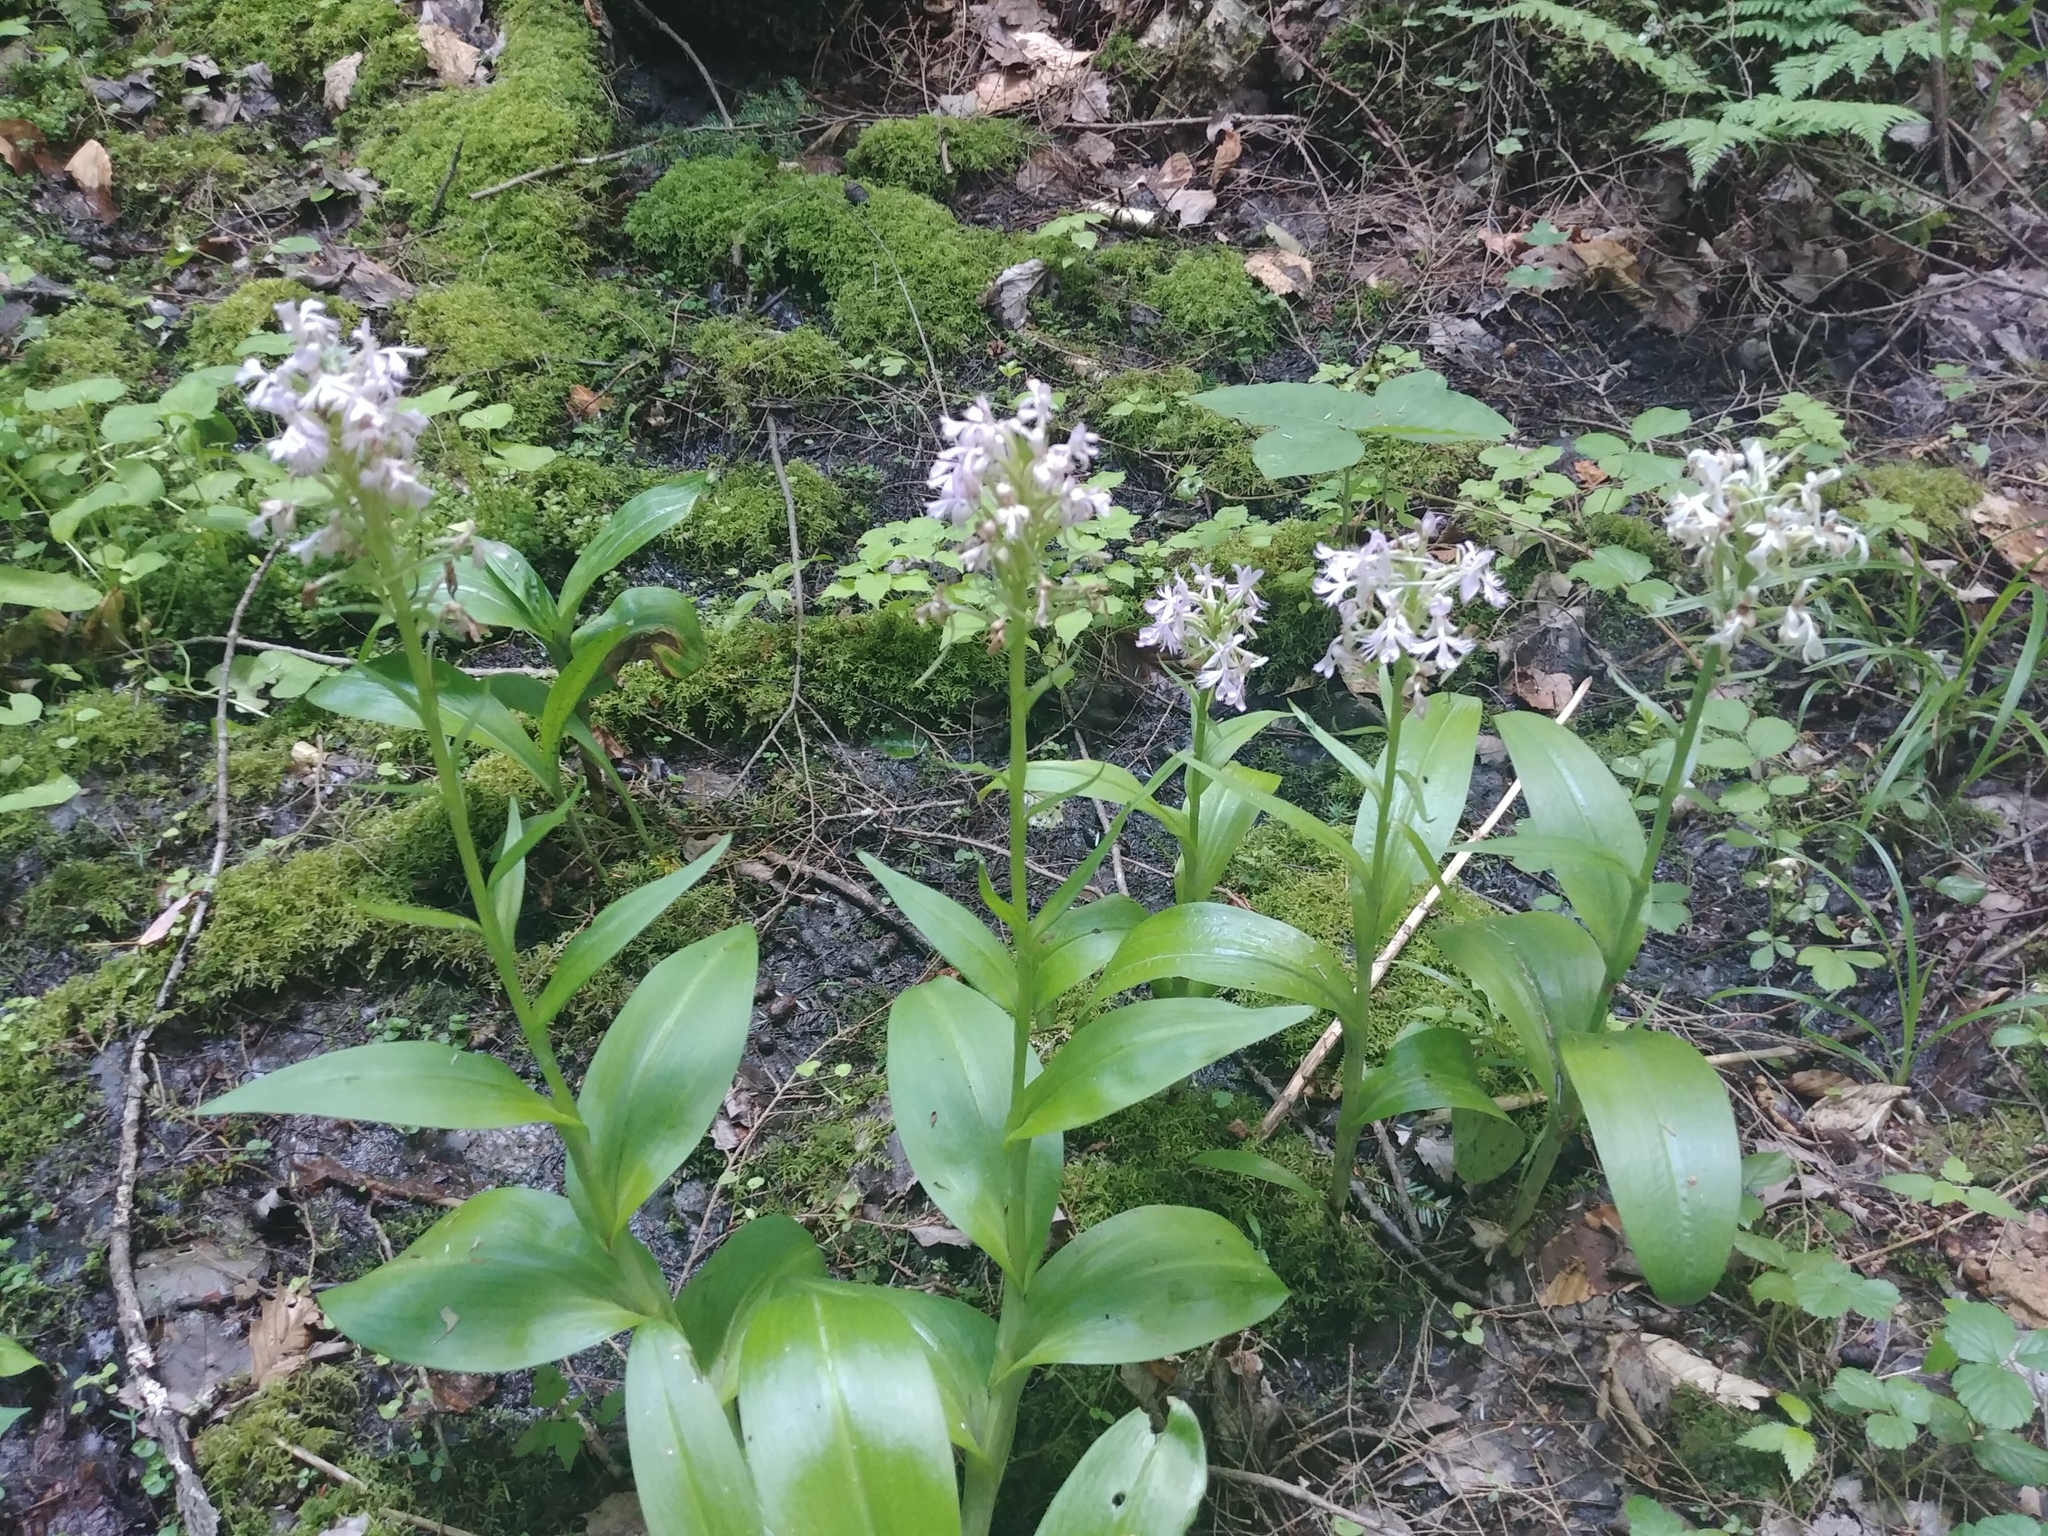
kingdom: Plantae
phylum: Tracheophyta
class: Liliopsida
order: Asparagales
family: Orchidaceae
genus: Platanthera
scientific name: Platanthera grandiflora
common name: Greater purple fringed orchid
